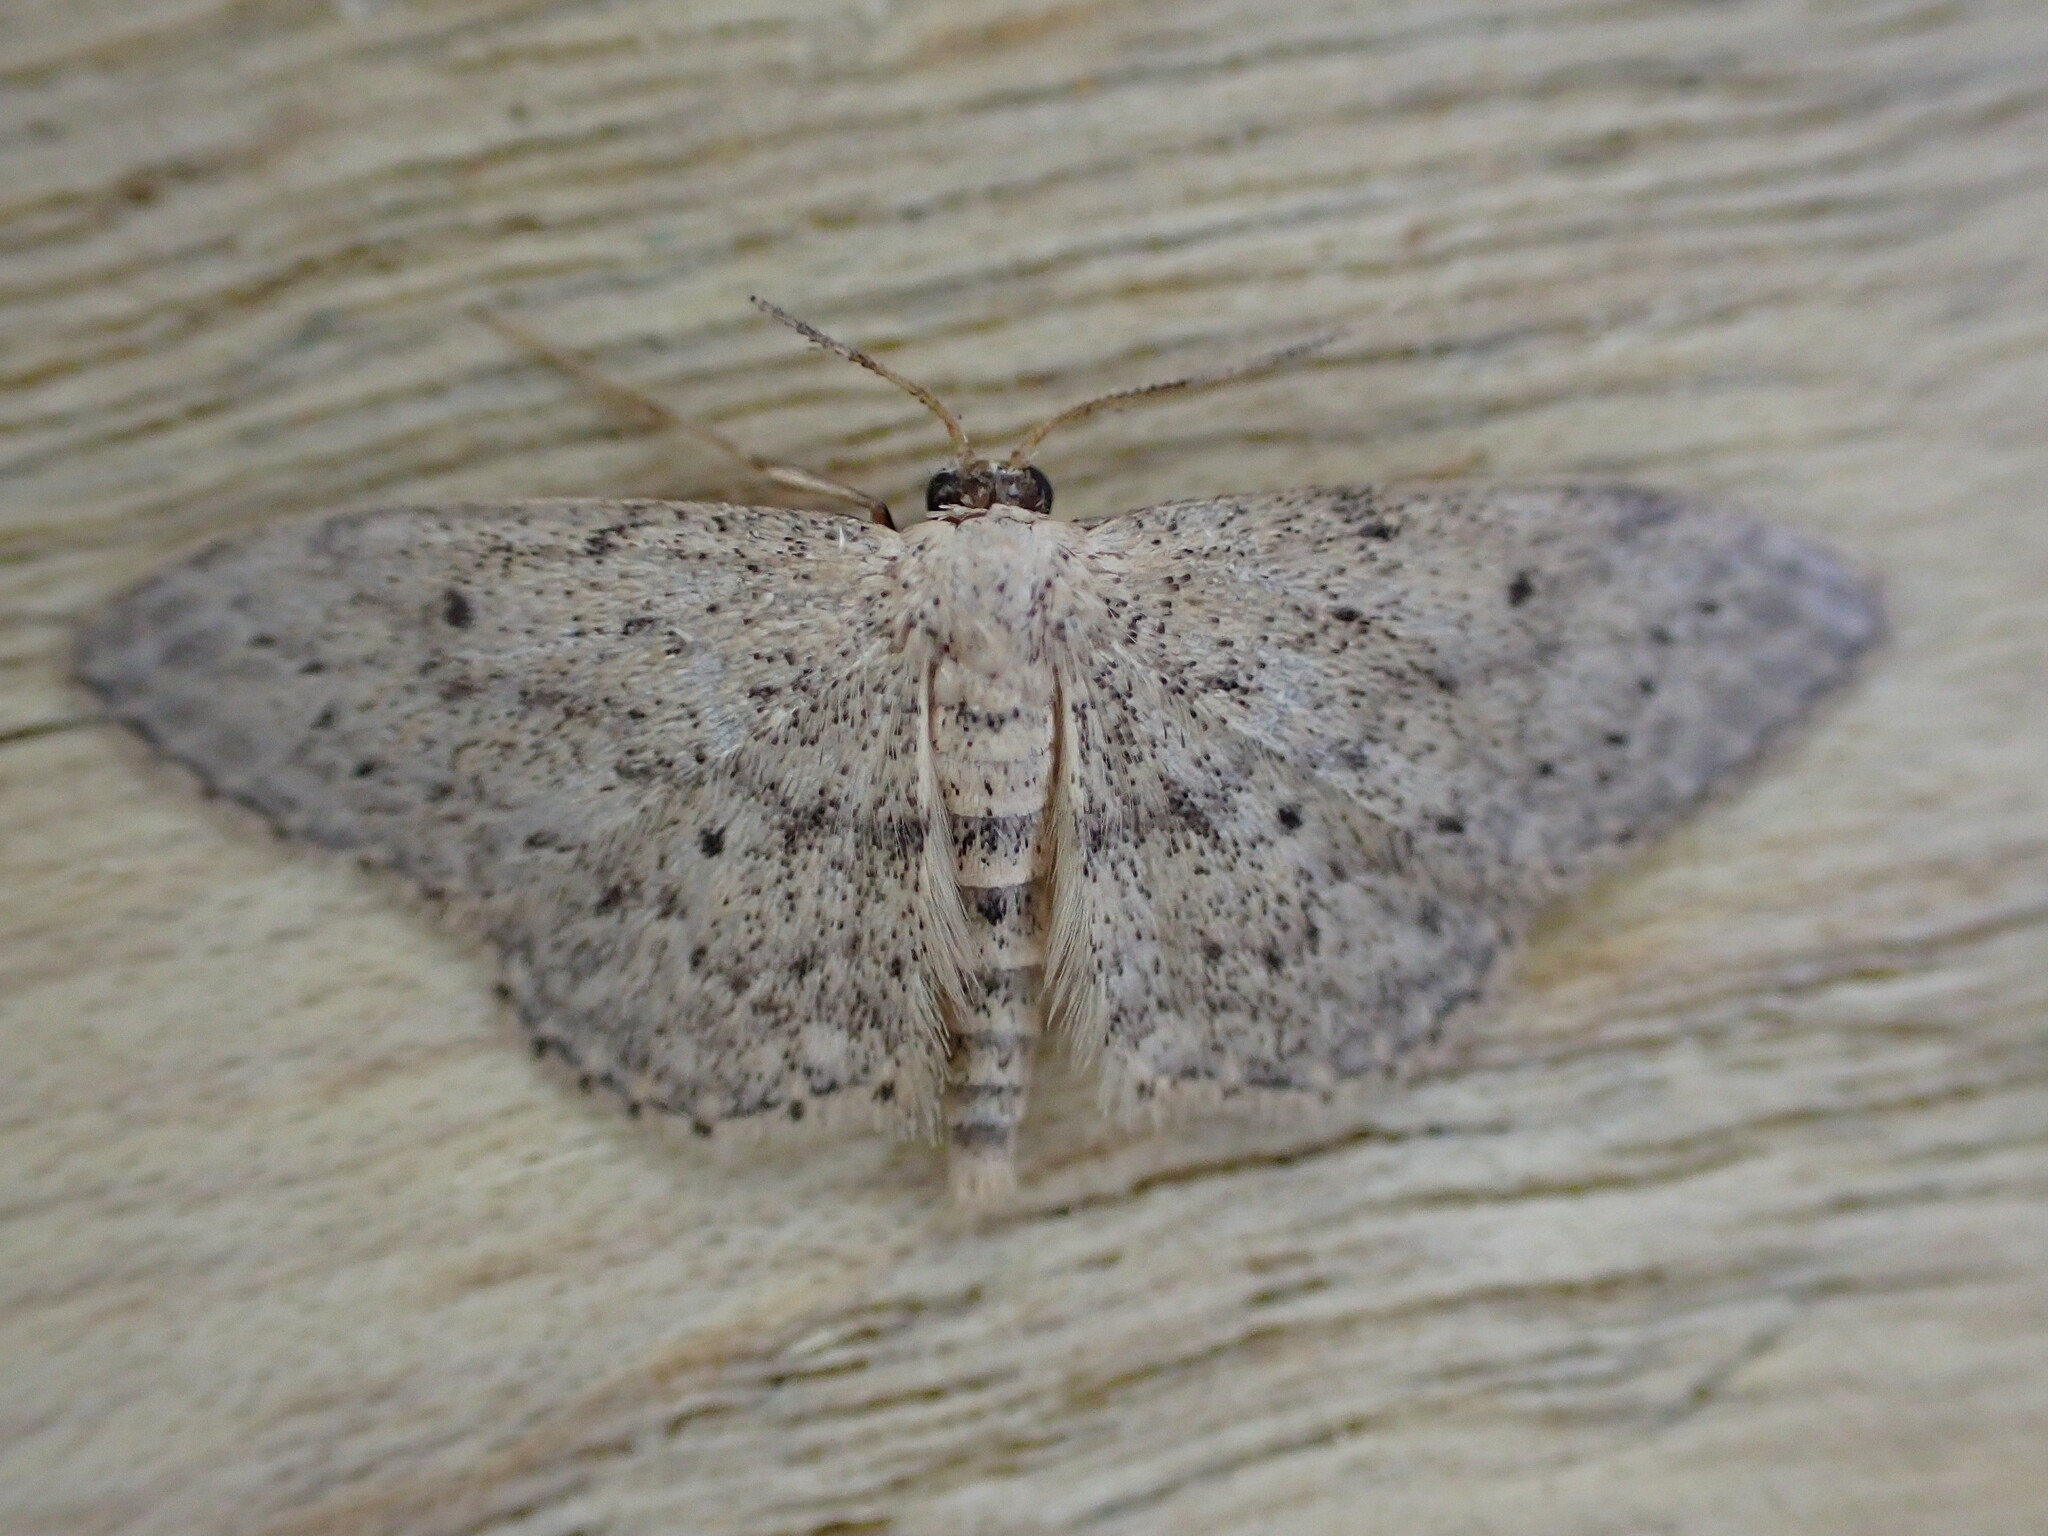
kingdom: Animalia
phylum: Arthropoda
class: Insecta
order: Lepidoptera
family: Geometridae
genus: Idaea
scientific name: Idaea seriata
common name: Small dusty wave
